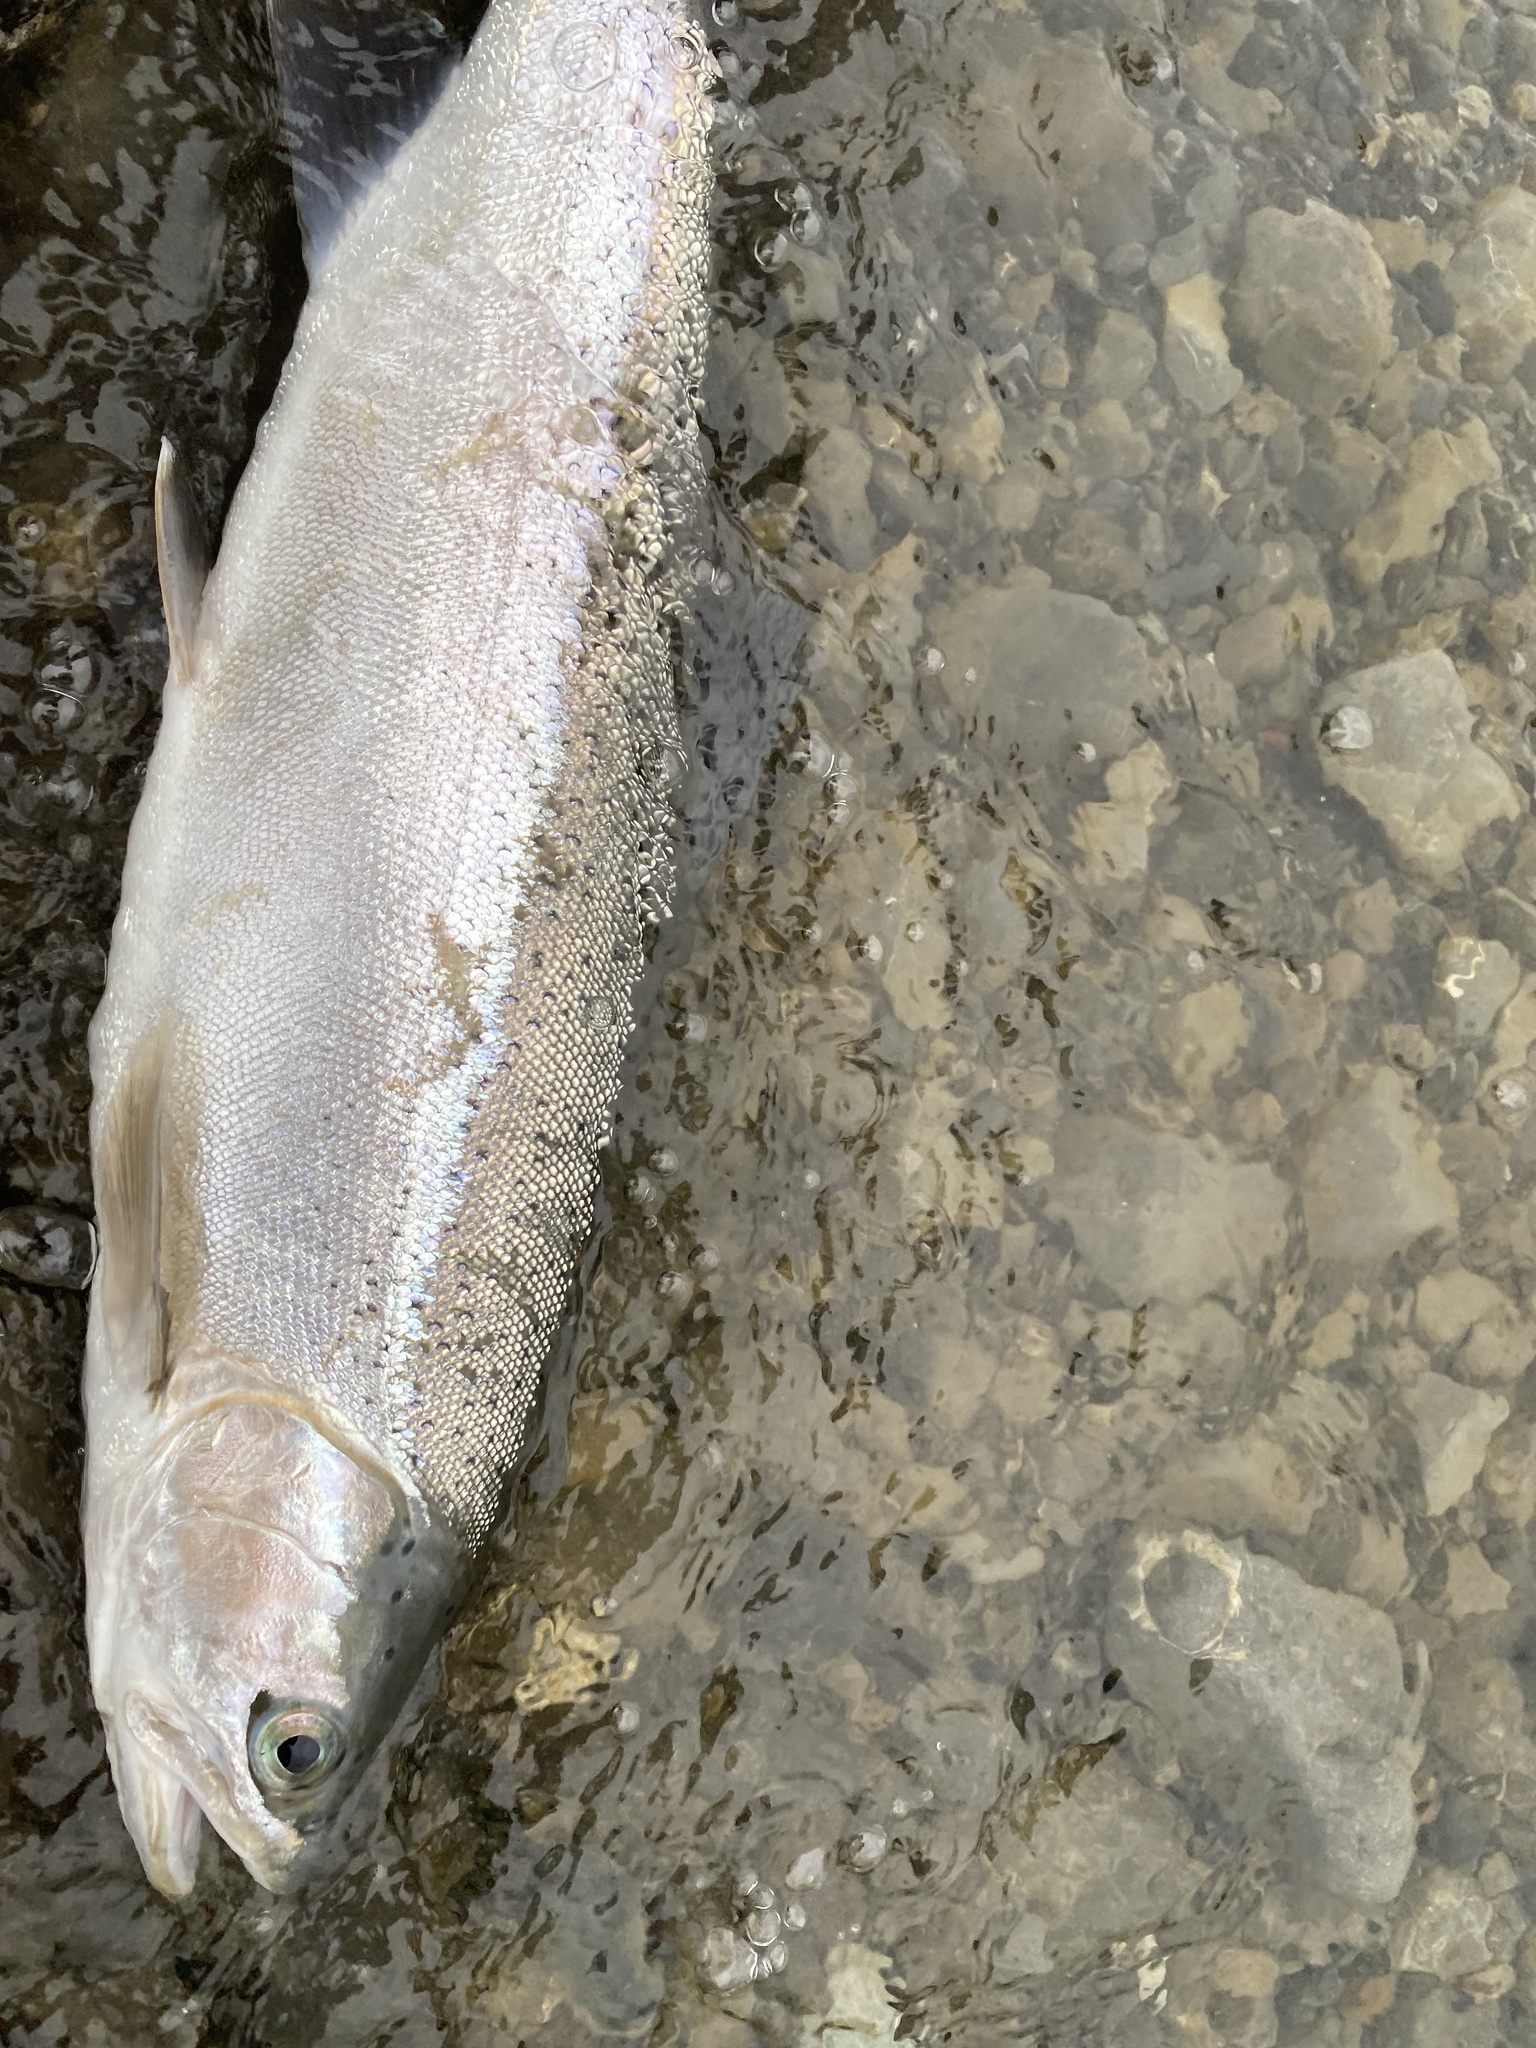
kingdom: Animalia
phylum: Chordata
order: Salmoniformes
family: Salmonidae
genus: Oncorhynchus
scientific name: Oncorhynchus mykiss
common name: Rainbow trout
